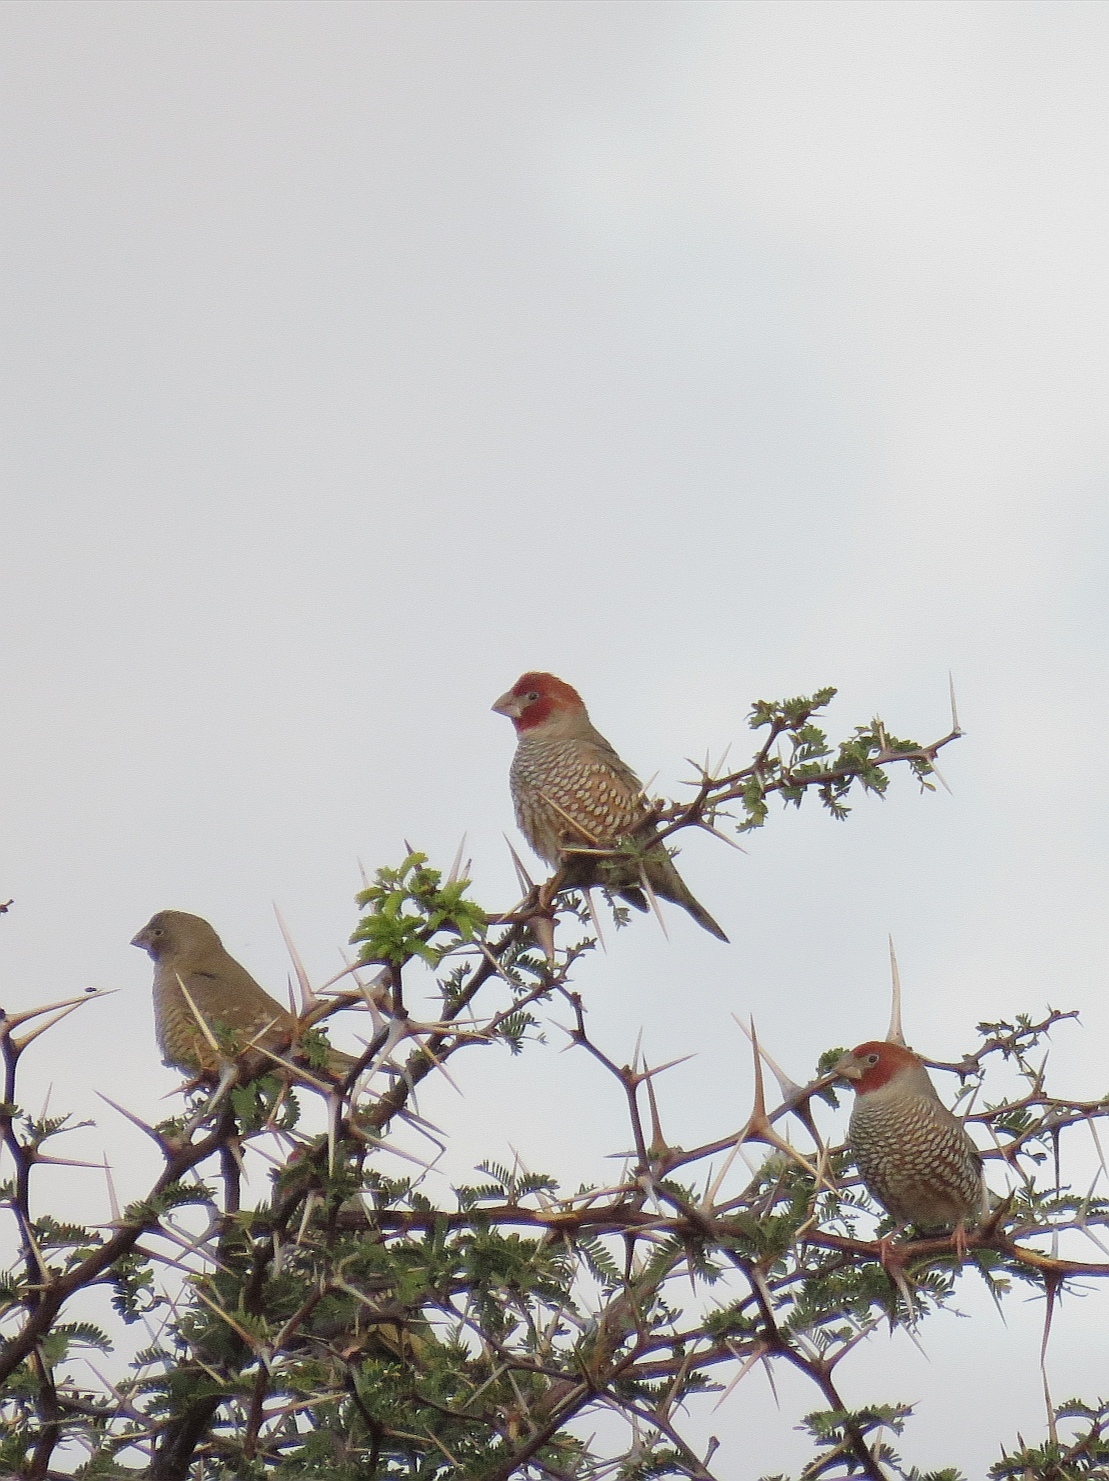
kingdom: Animalia
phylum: Chordata
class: Aves
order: Passeriformes
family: Estrildidae
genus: Amadina
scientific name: Amadina erythrocephala
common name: Red-headed finch
